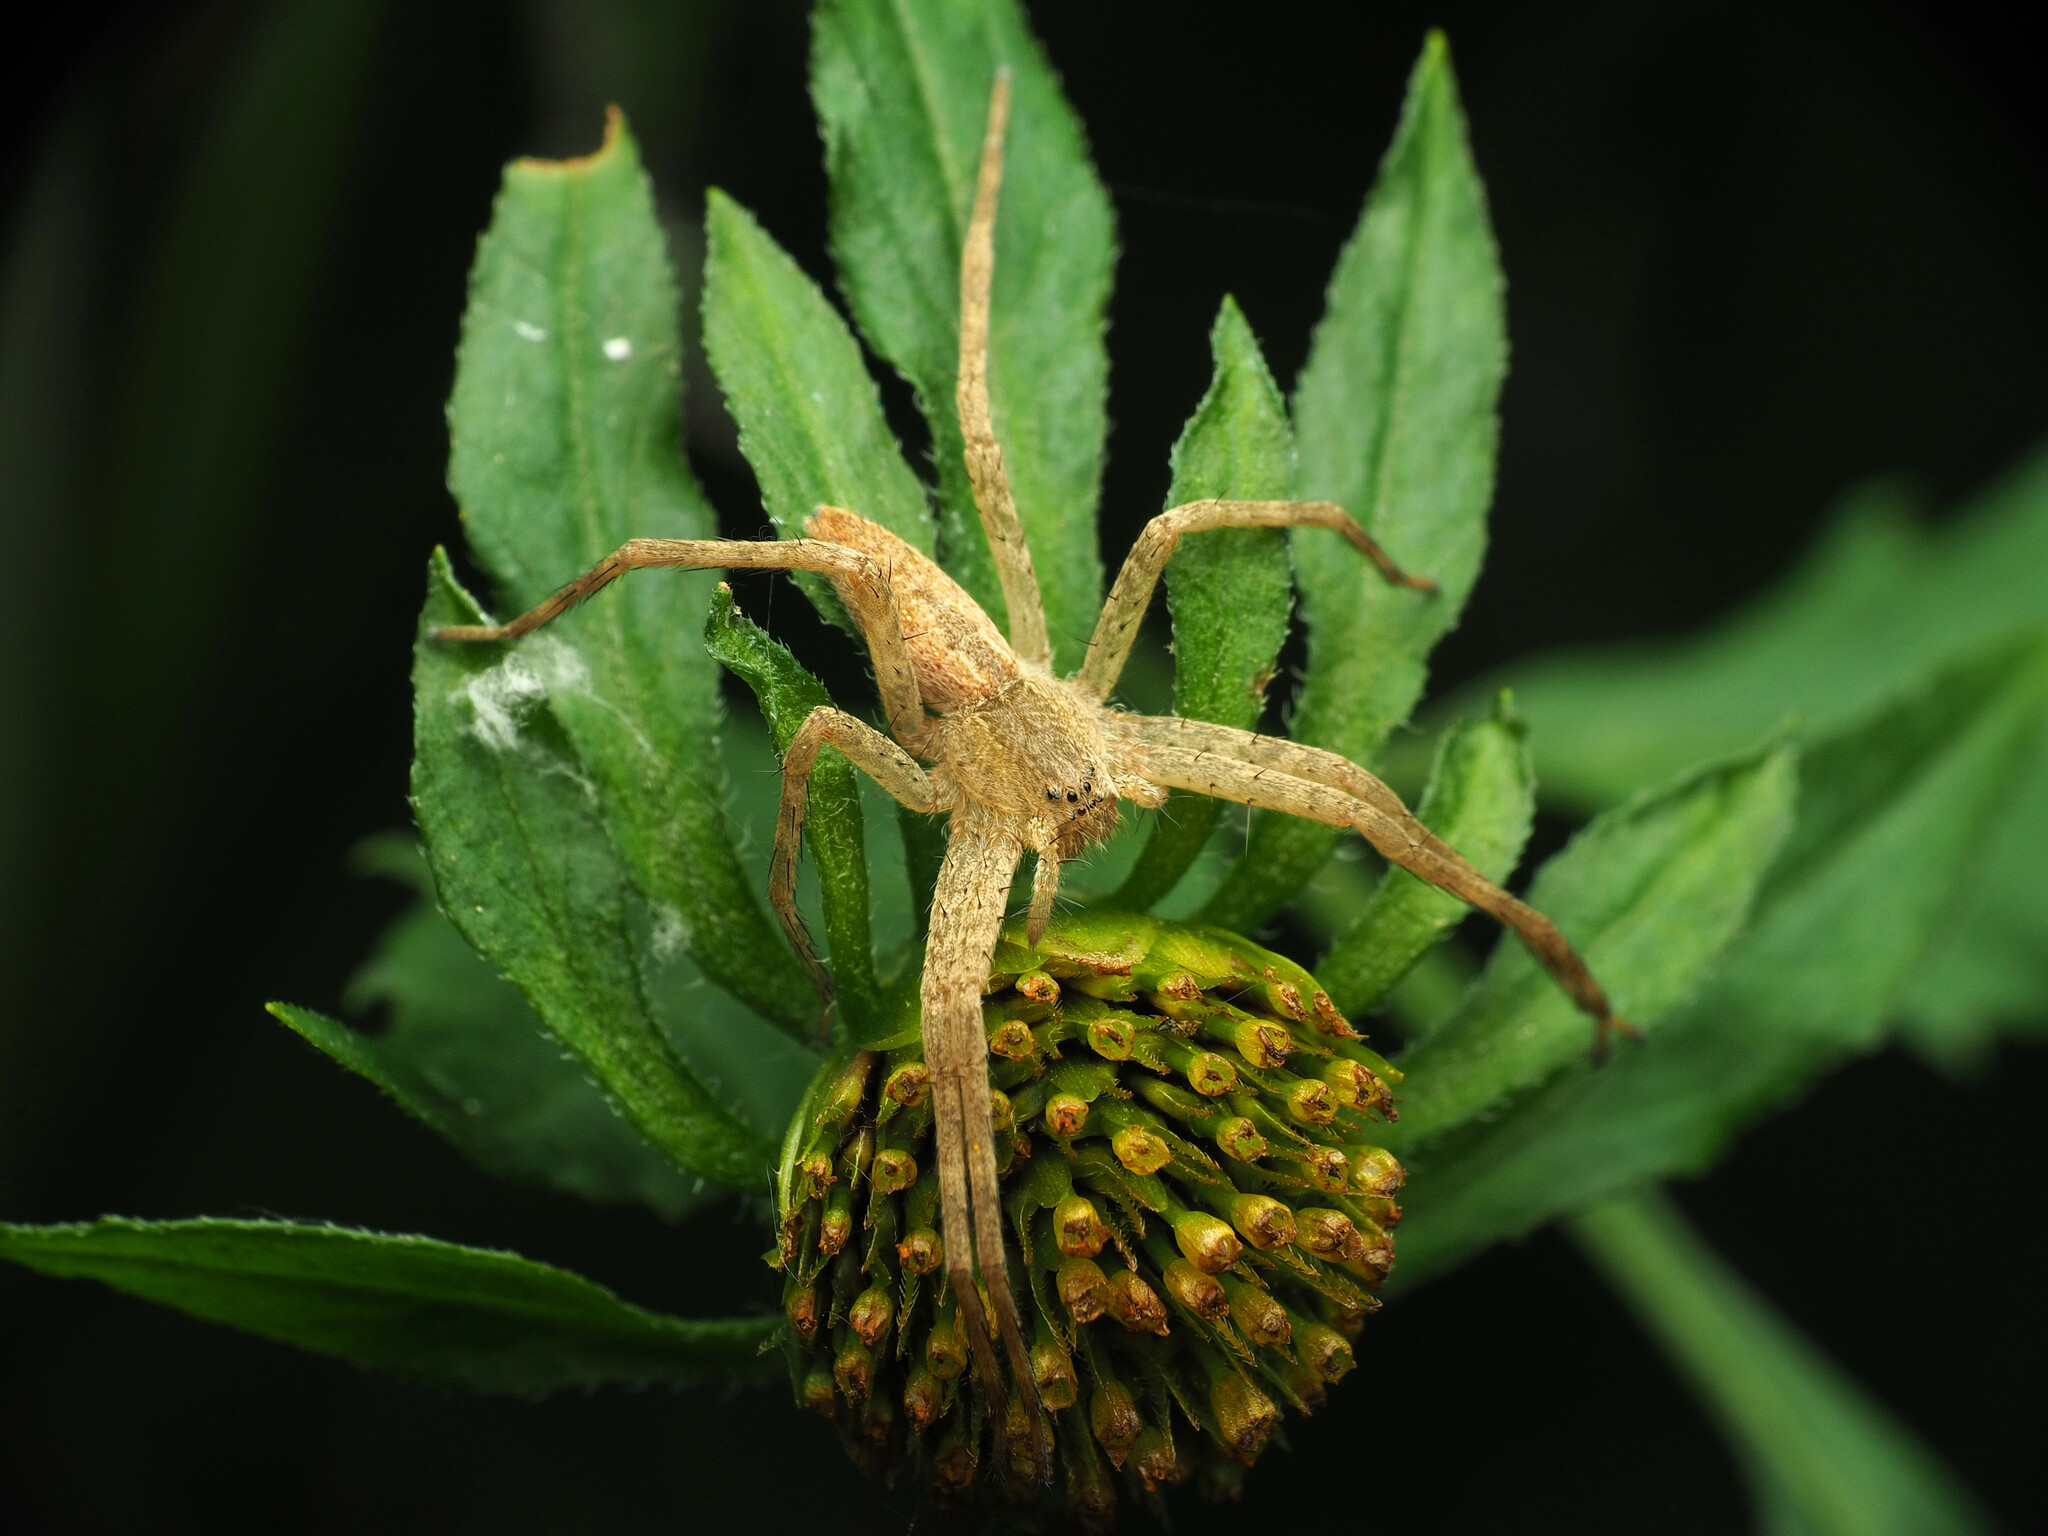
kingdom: Animalia
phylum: Arthropoda
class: Arachnida
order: Araneae
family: Pisauridae
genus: Pisaurina
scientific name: Pisaurina mira
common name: American nursery web spider
